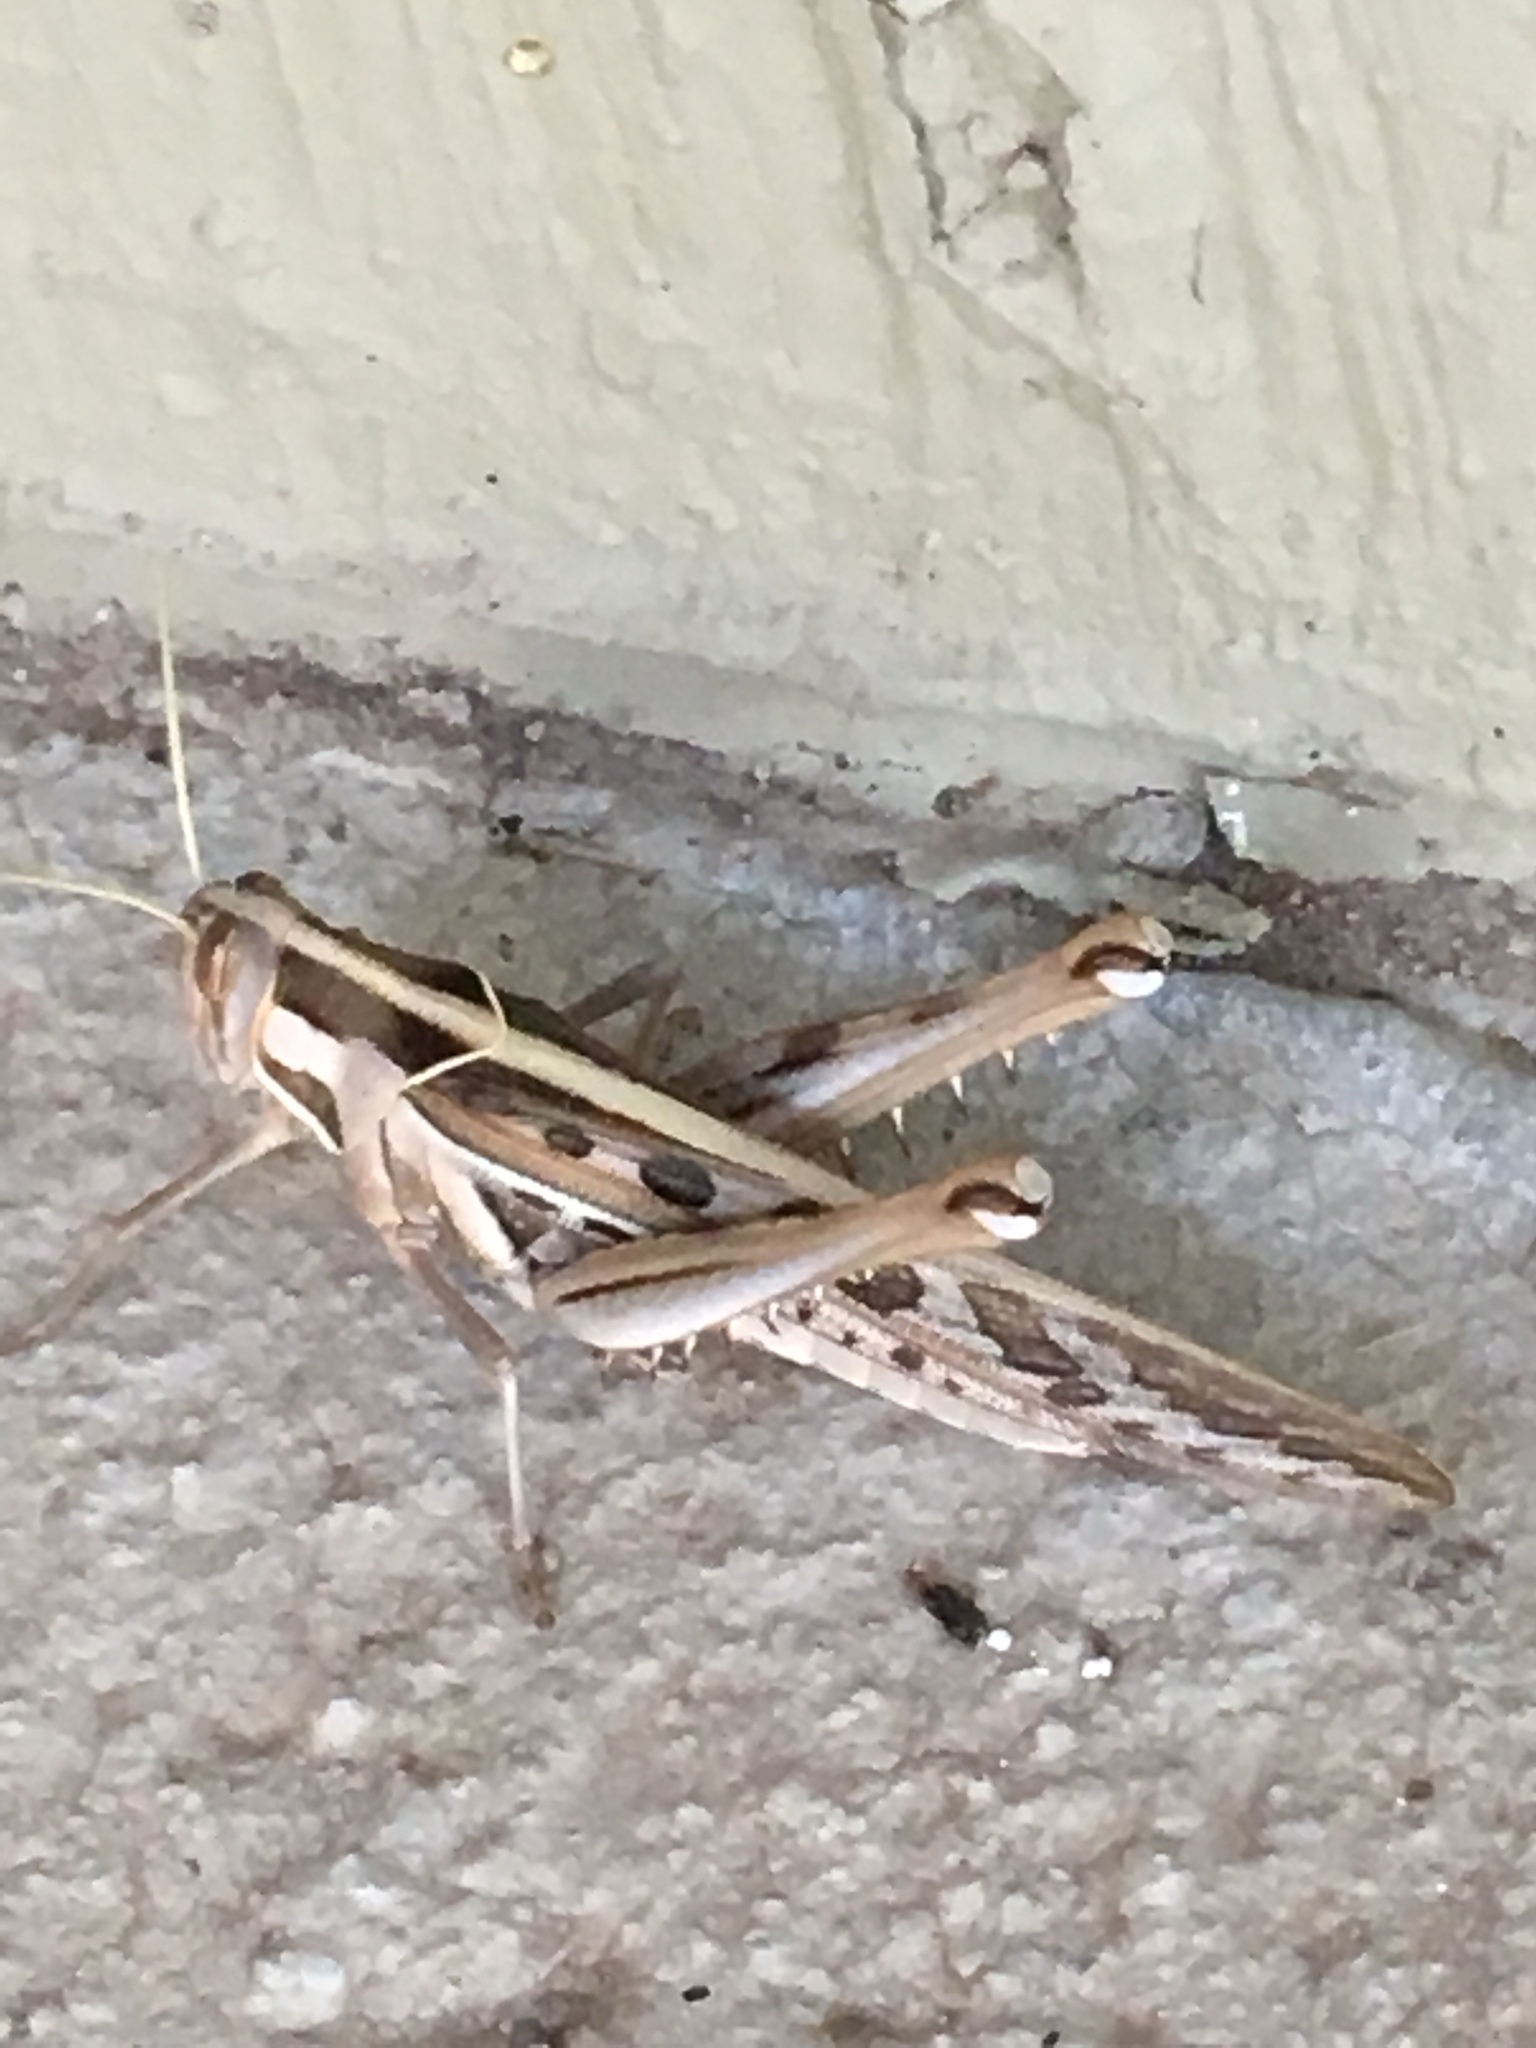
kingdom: Animalia
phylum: Arthropoda
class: Insecta
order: Orthoptera
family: Acrididae
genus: Cyrtacanthacris
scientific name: Cyrtacanthacris tatarica
